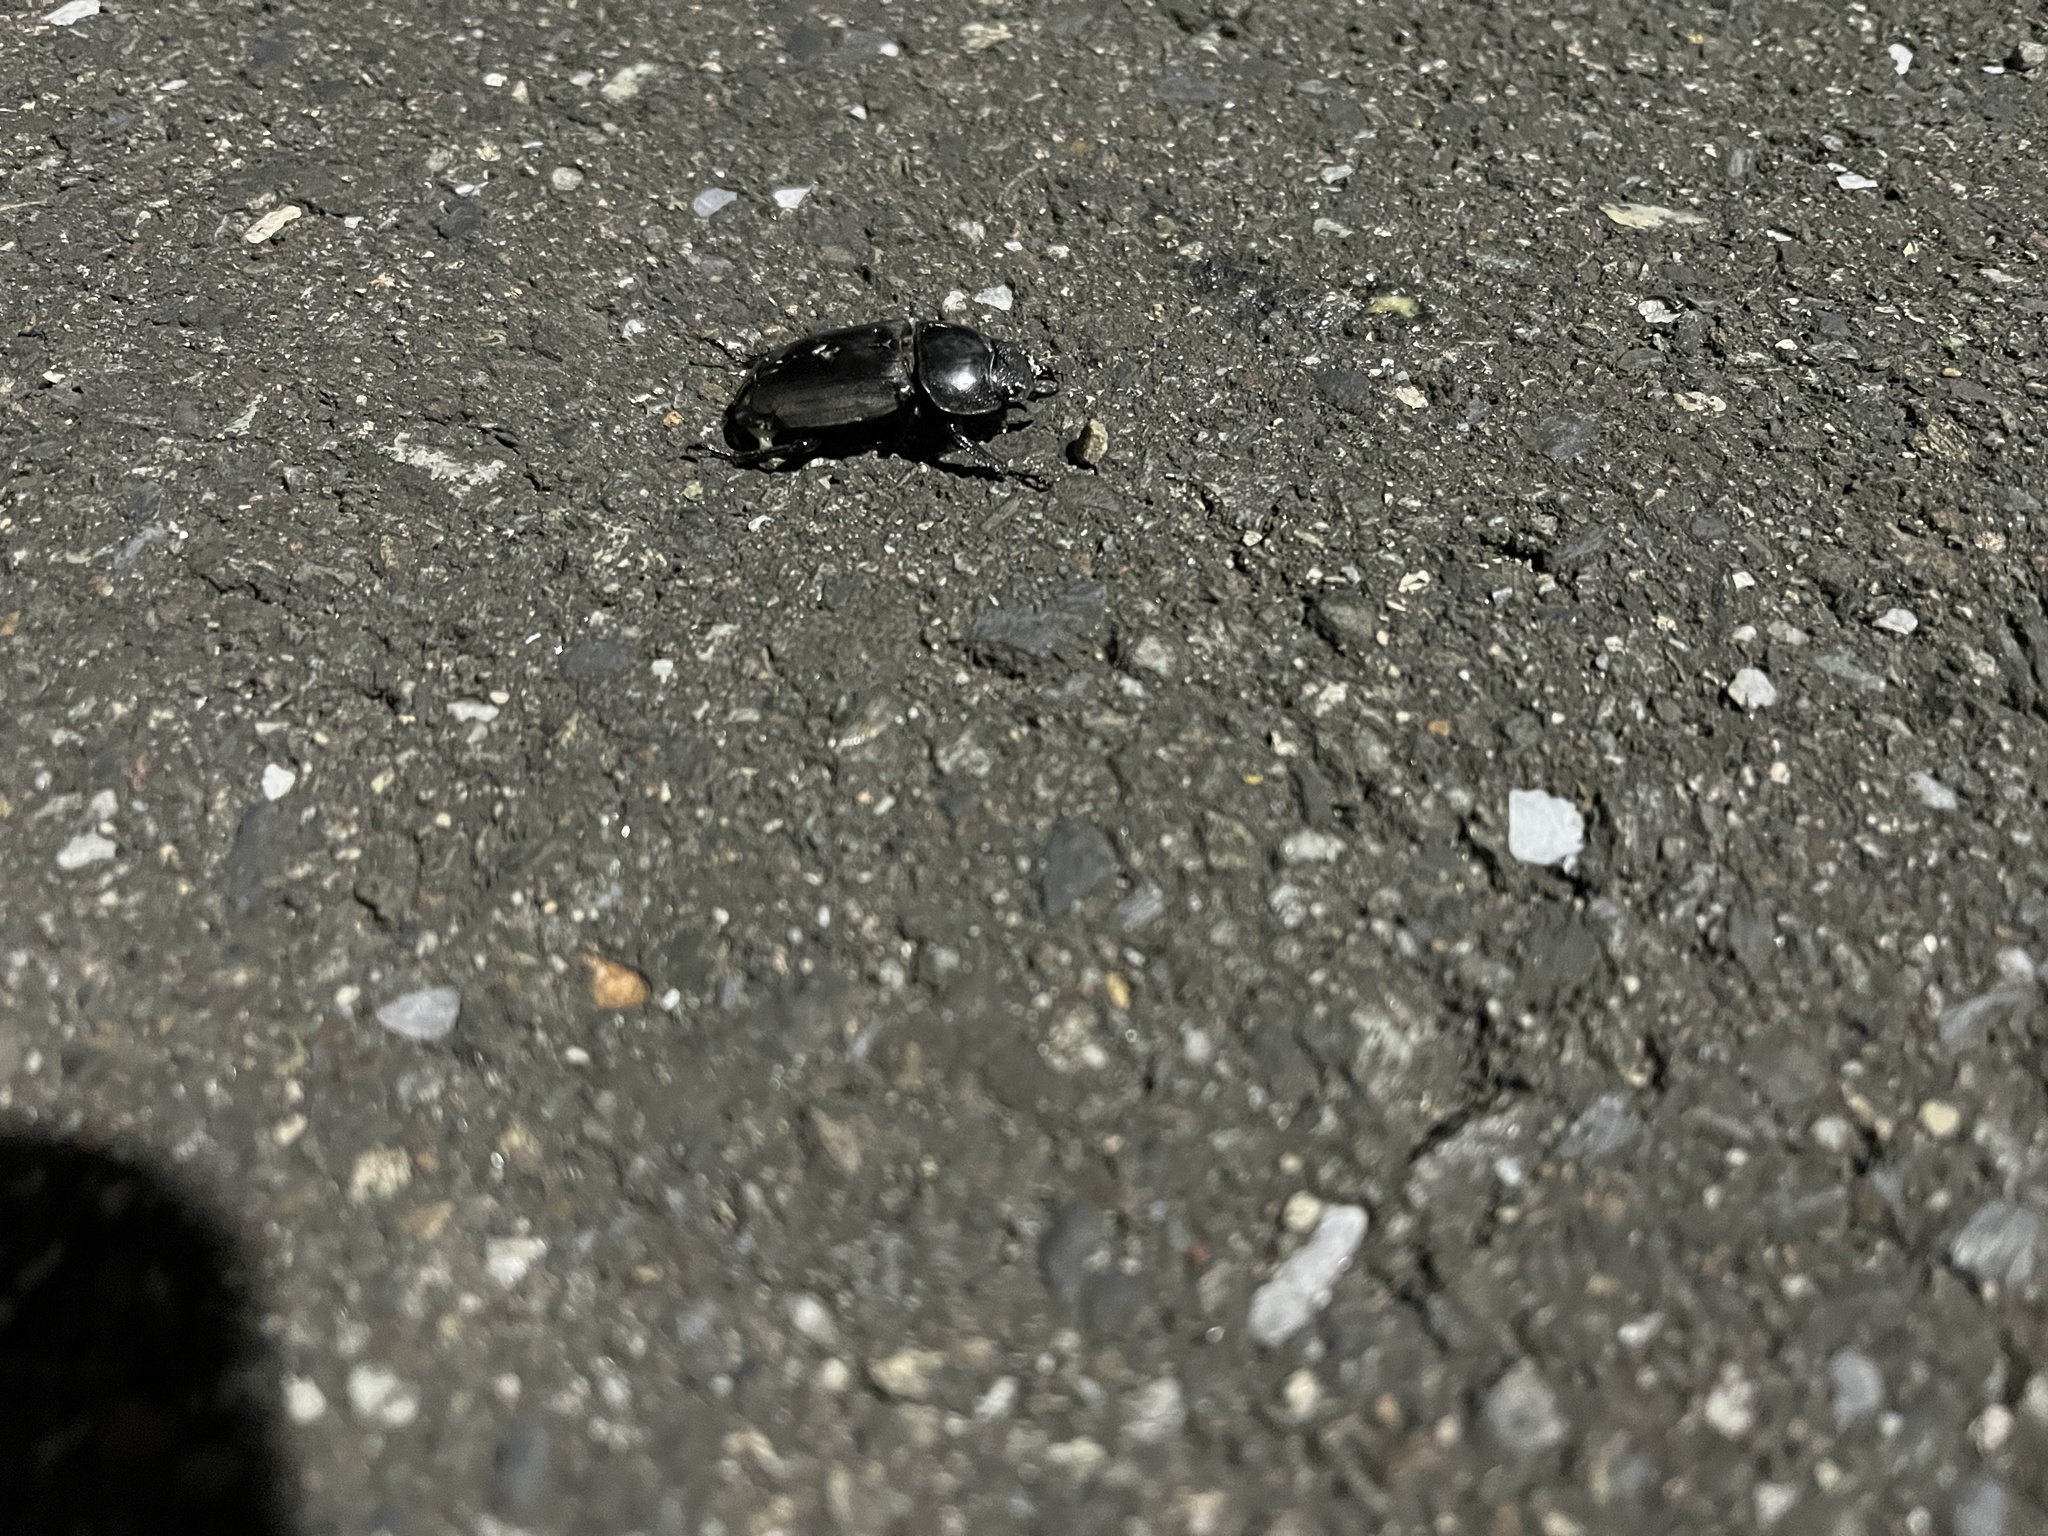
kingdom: Animalia
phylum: Arthropoda
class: Insecta
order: Coleoptera
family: Lucanidae
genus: Serrognathus
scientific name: Serrognathus titanus
